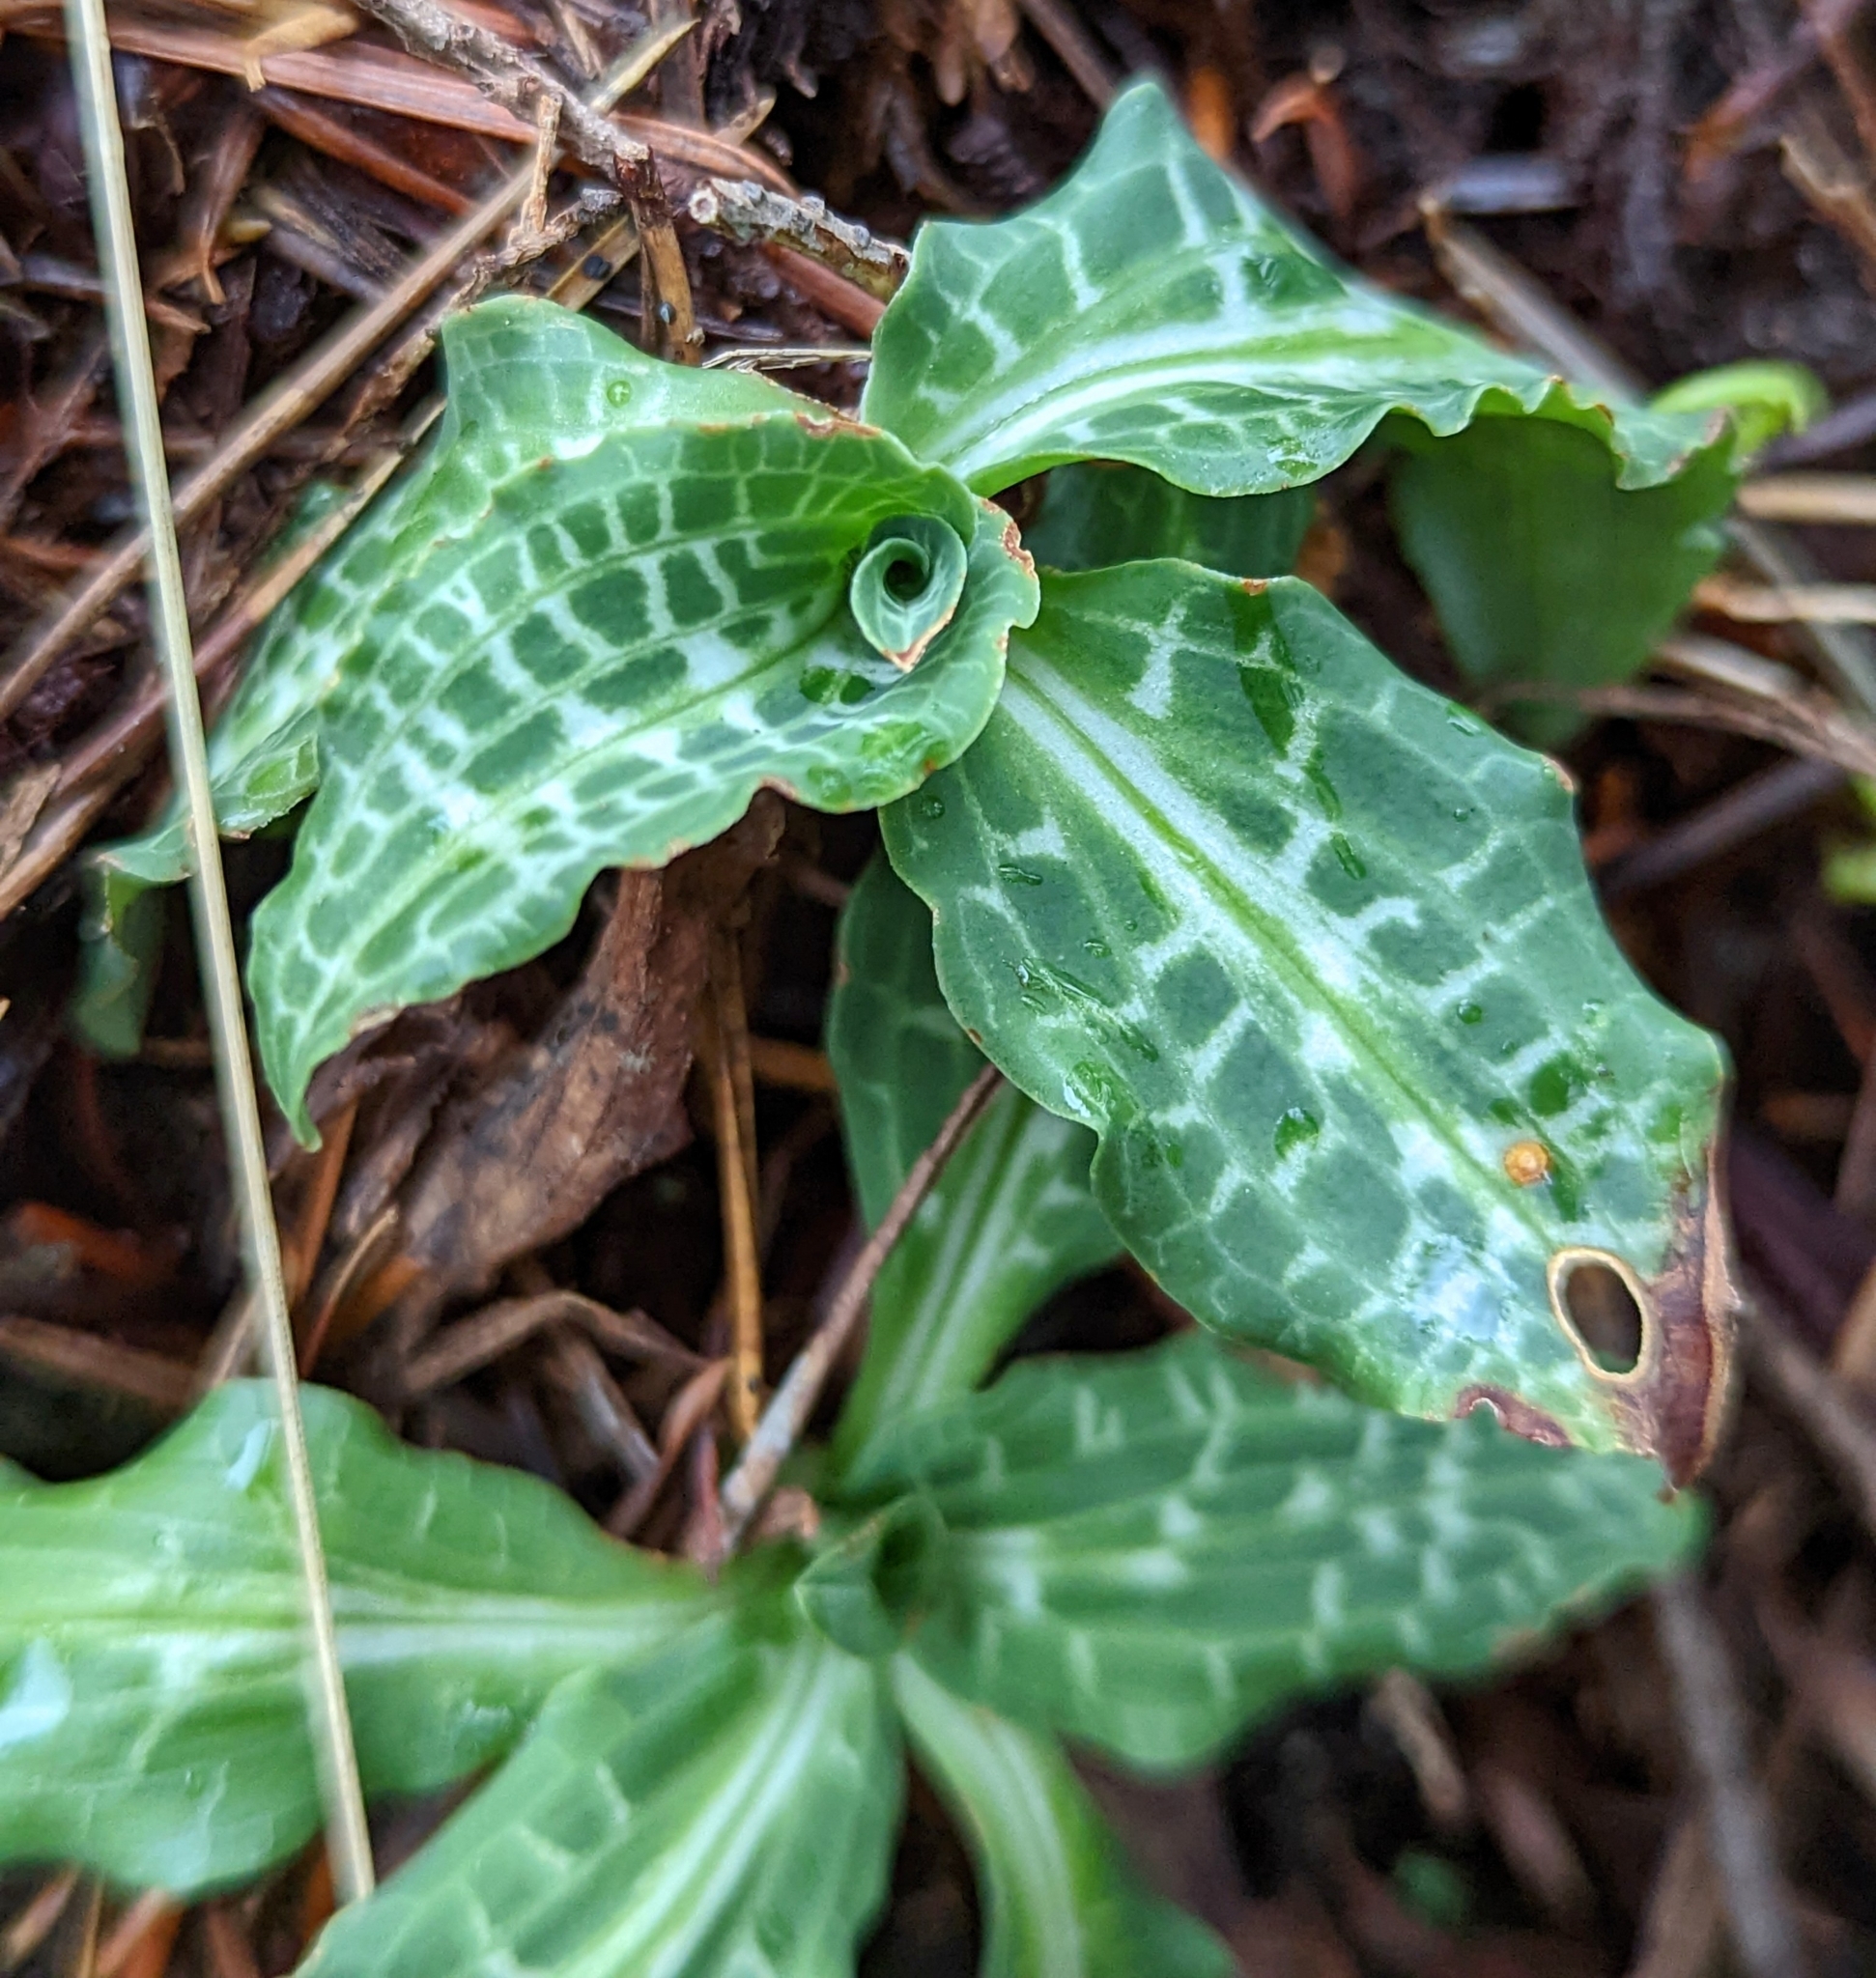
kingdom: Plantae
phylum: Tracheophyta
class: Liliopsida
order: Asparagales
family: Orchidaceae
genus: Goodyera
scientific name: Goodyera oblongifolia
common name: Giant rattlesnake-plantain
